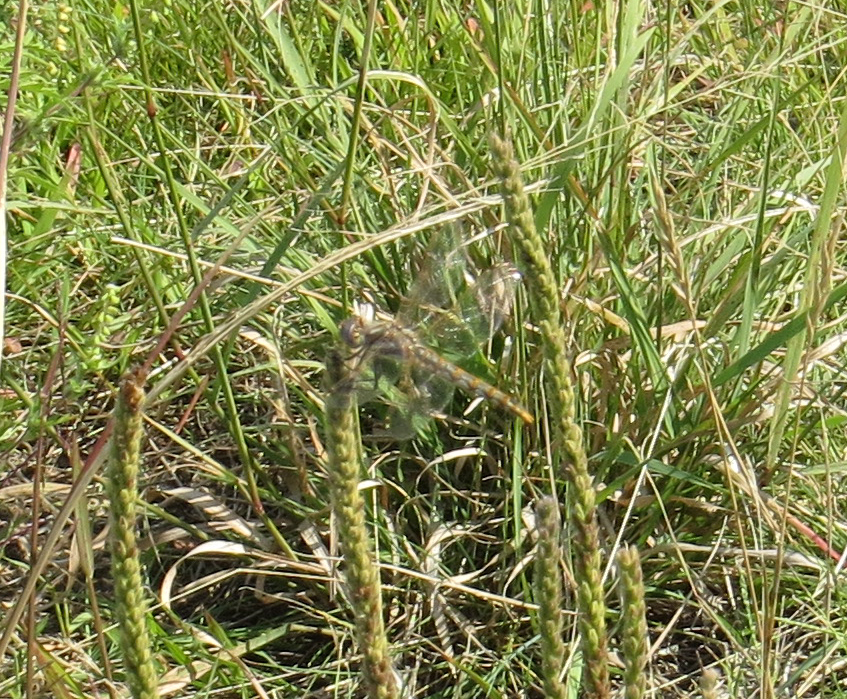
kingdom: Animalia
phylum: Arthropoda
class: Insecta
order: Odonata
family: Libellulidae
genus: Sympetrum
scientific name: Sympetrum corruptum
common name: Variegated meadowhawk
